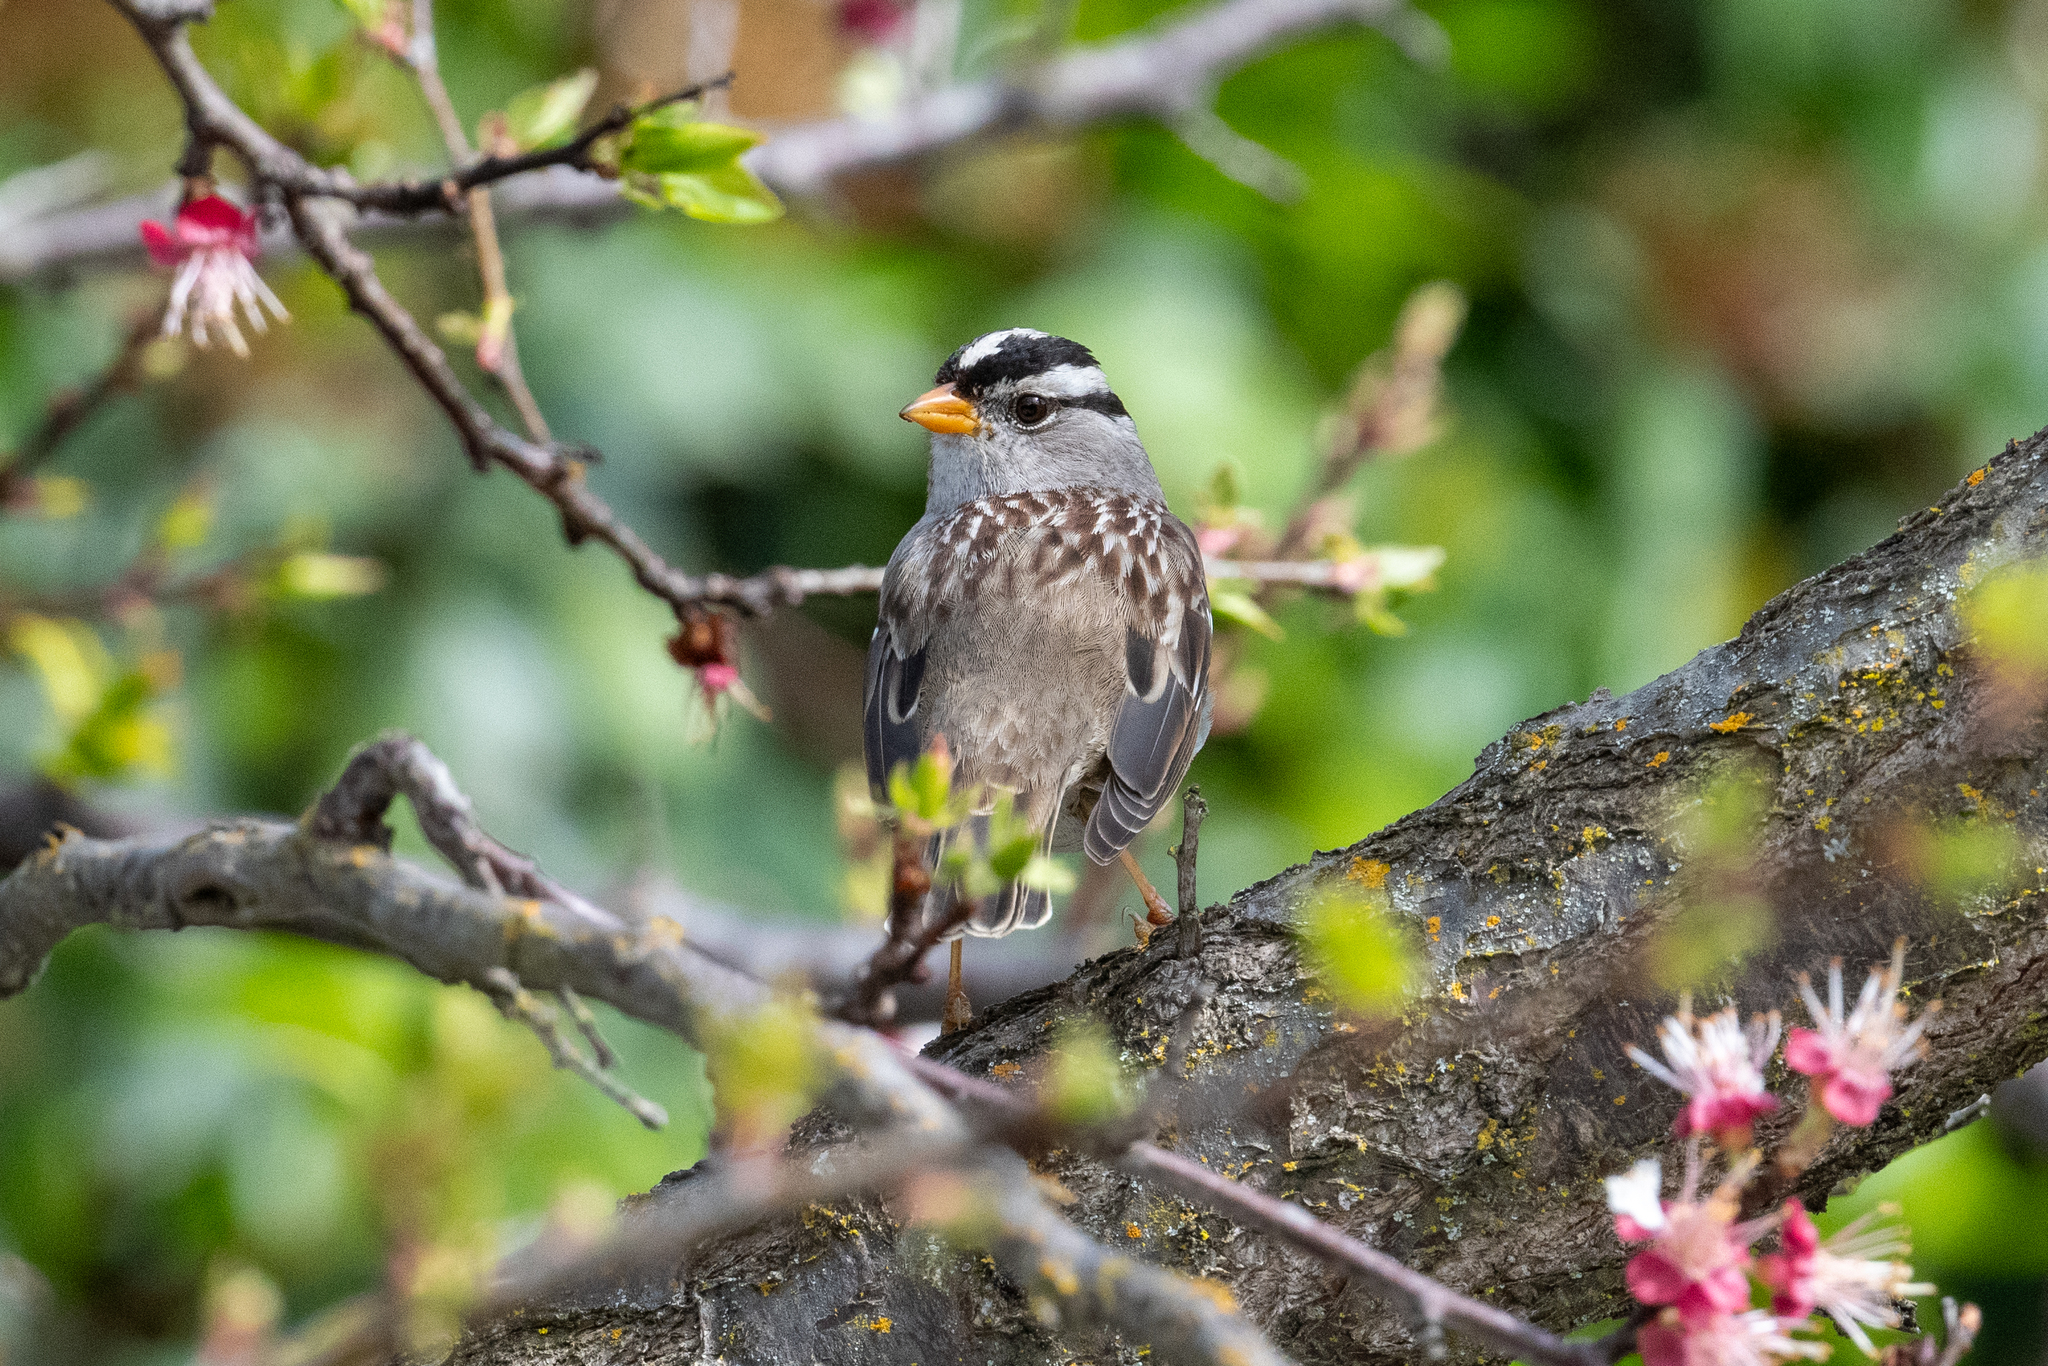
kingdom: Animalia
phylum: Chordata
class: Aves
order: Passeriformes
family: Passerellidae
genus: Zonotrichia
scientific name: Zonotrichia leucophrys
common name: White-crowned sparrow
